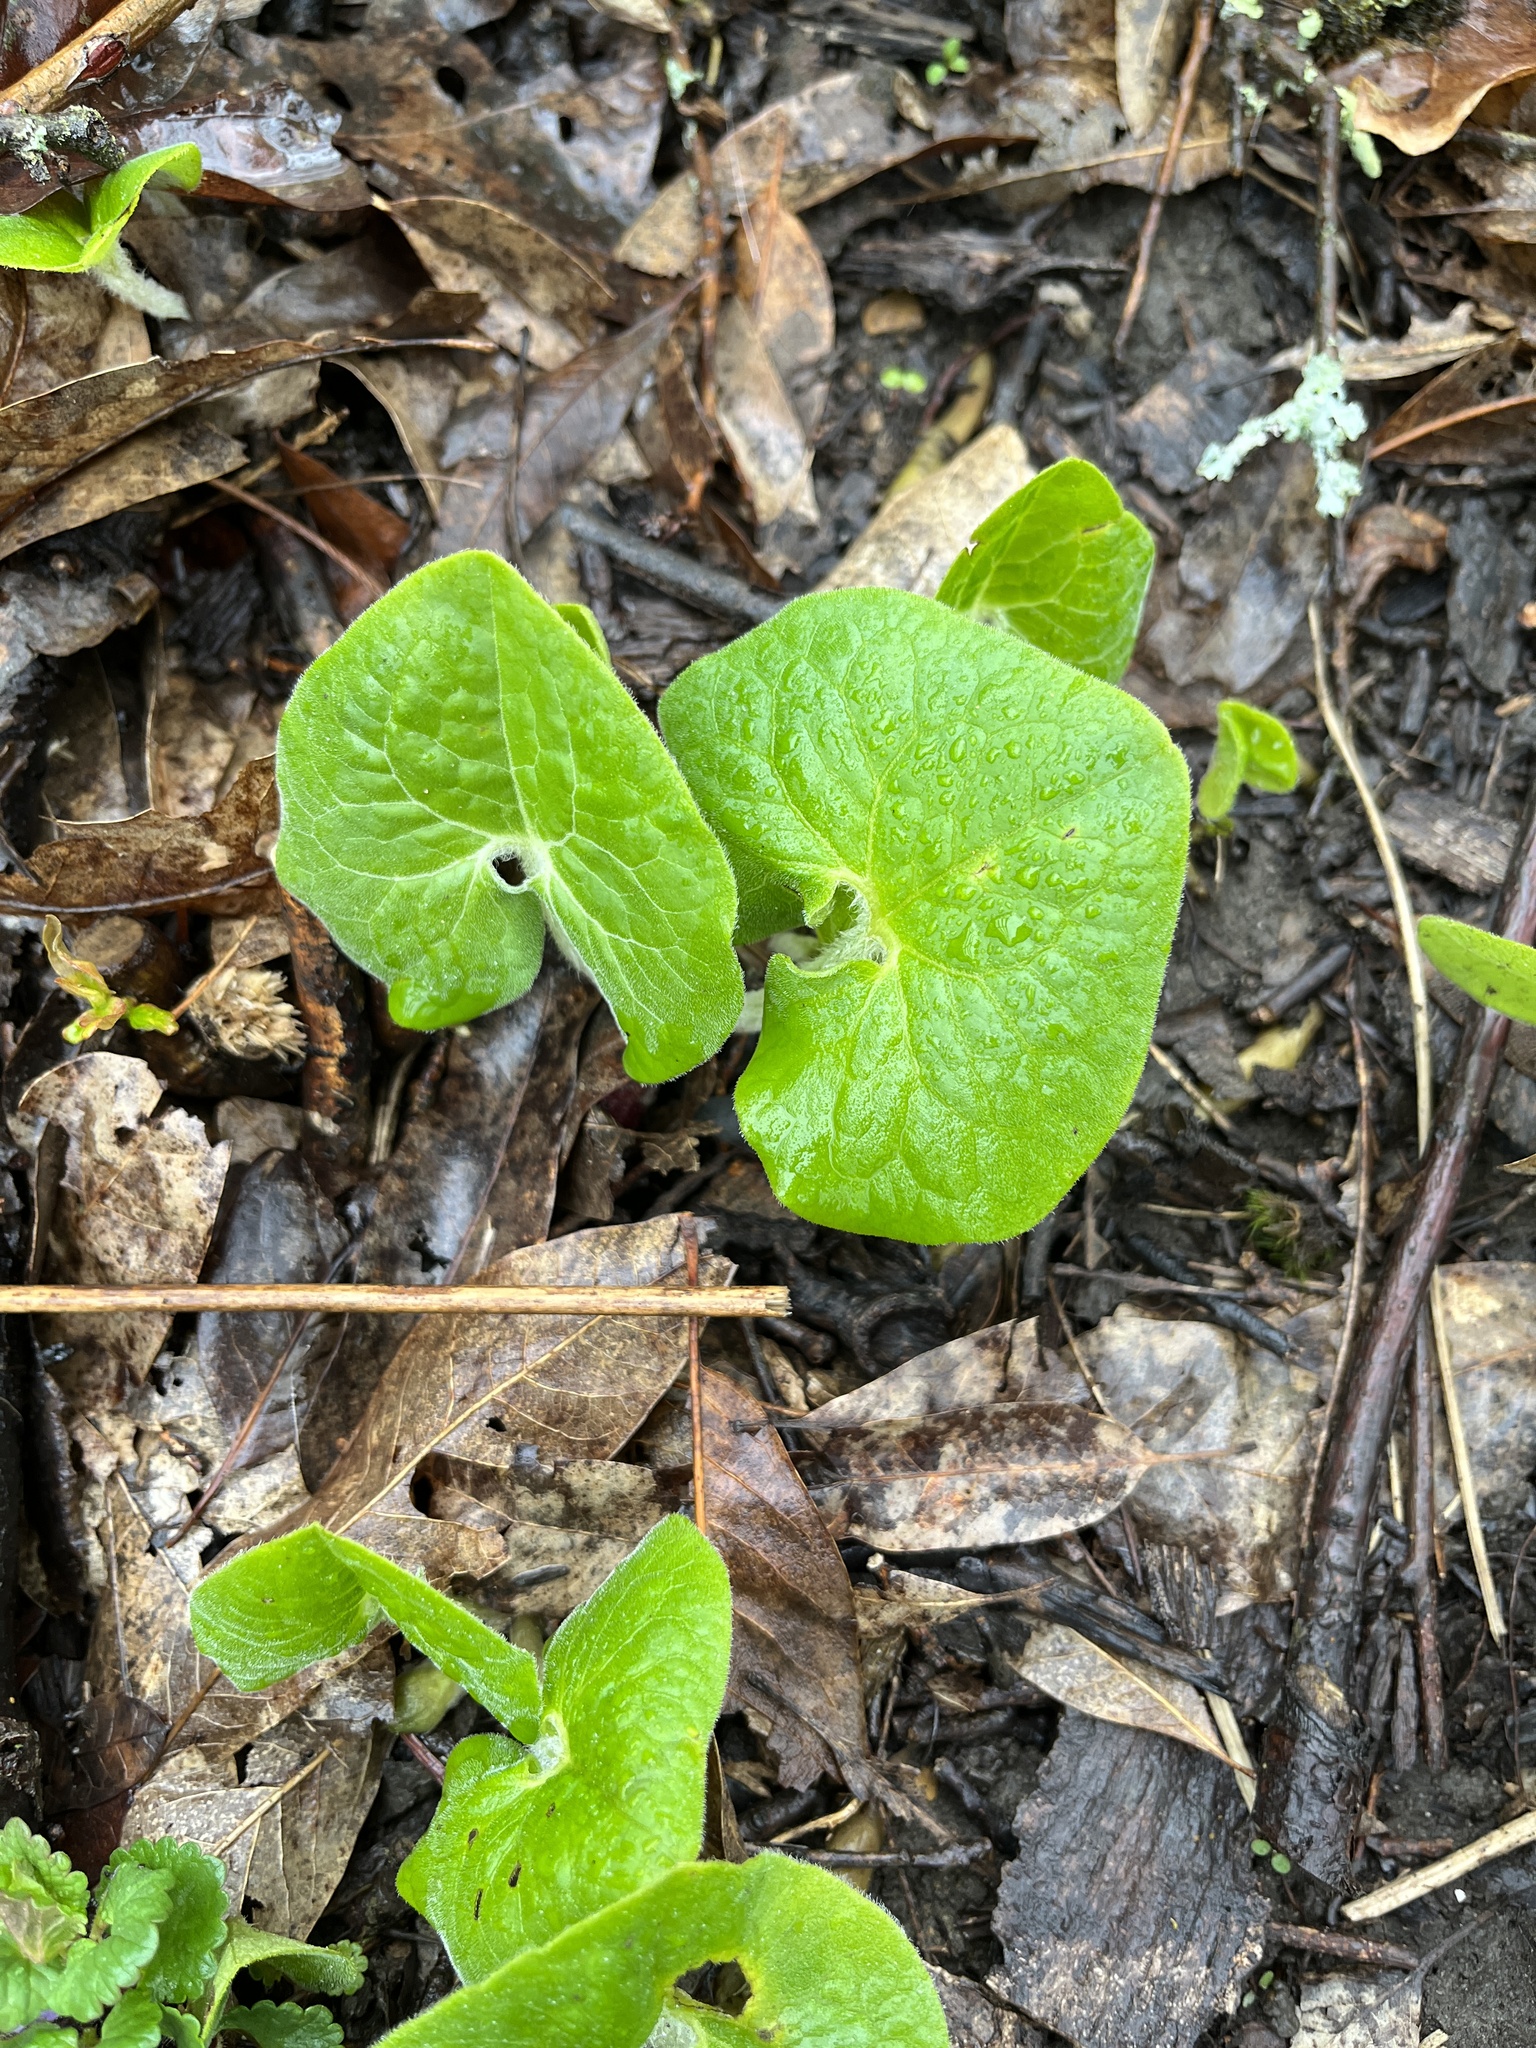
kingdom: Plantae
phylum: Tracheophyta
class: Magnoliopsida
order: Piperales
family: Aristolochiaceae
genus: Asarum
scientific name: Asarum canadense
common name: Wild ginger
